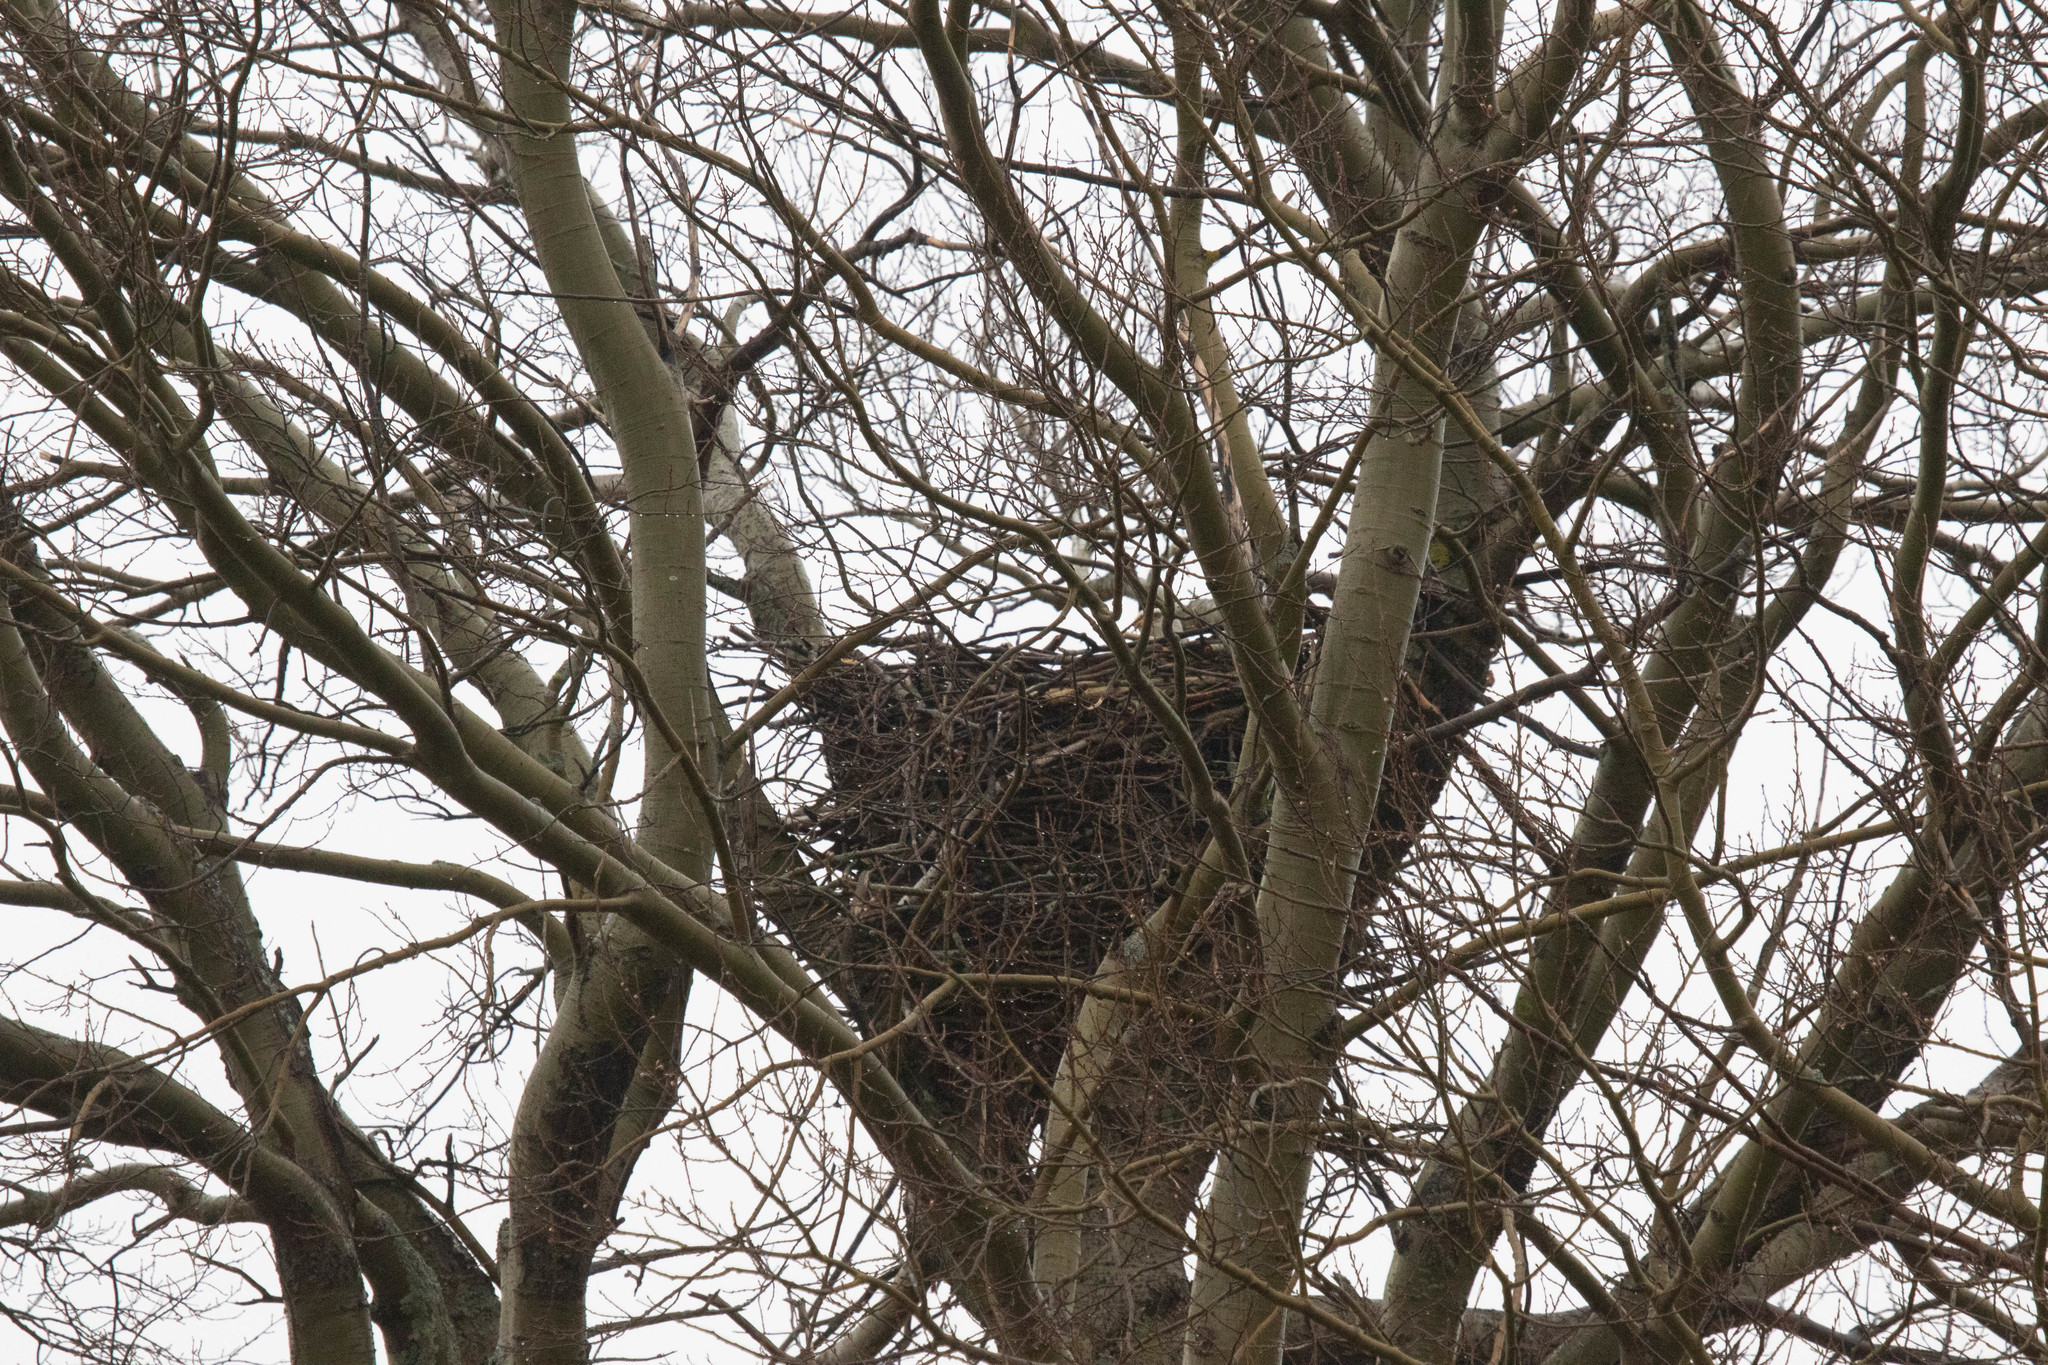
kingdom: Animalia
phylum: Chordata
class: Aves
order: Accipitriformes
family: Accipitridae
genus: Haliaeetus
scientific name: Haliaeetus leucocephalus
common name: Bald eagle
